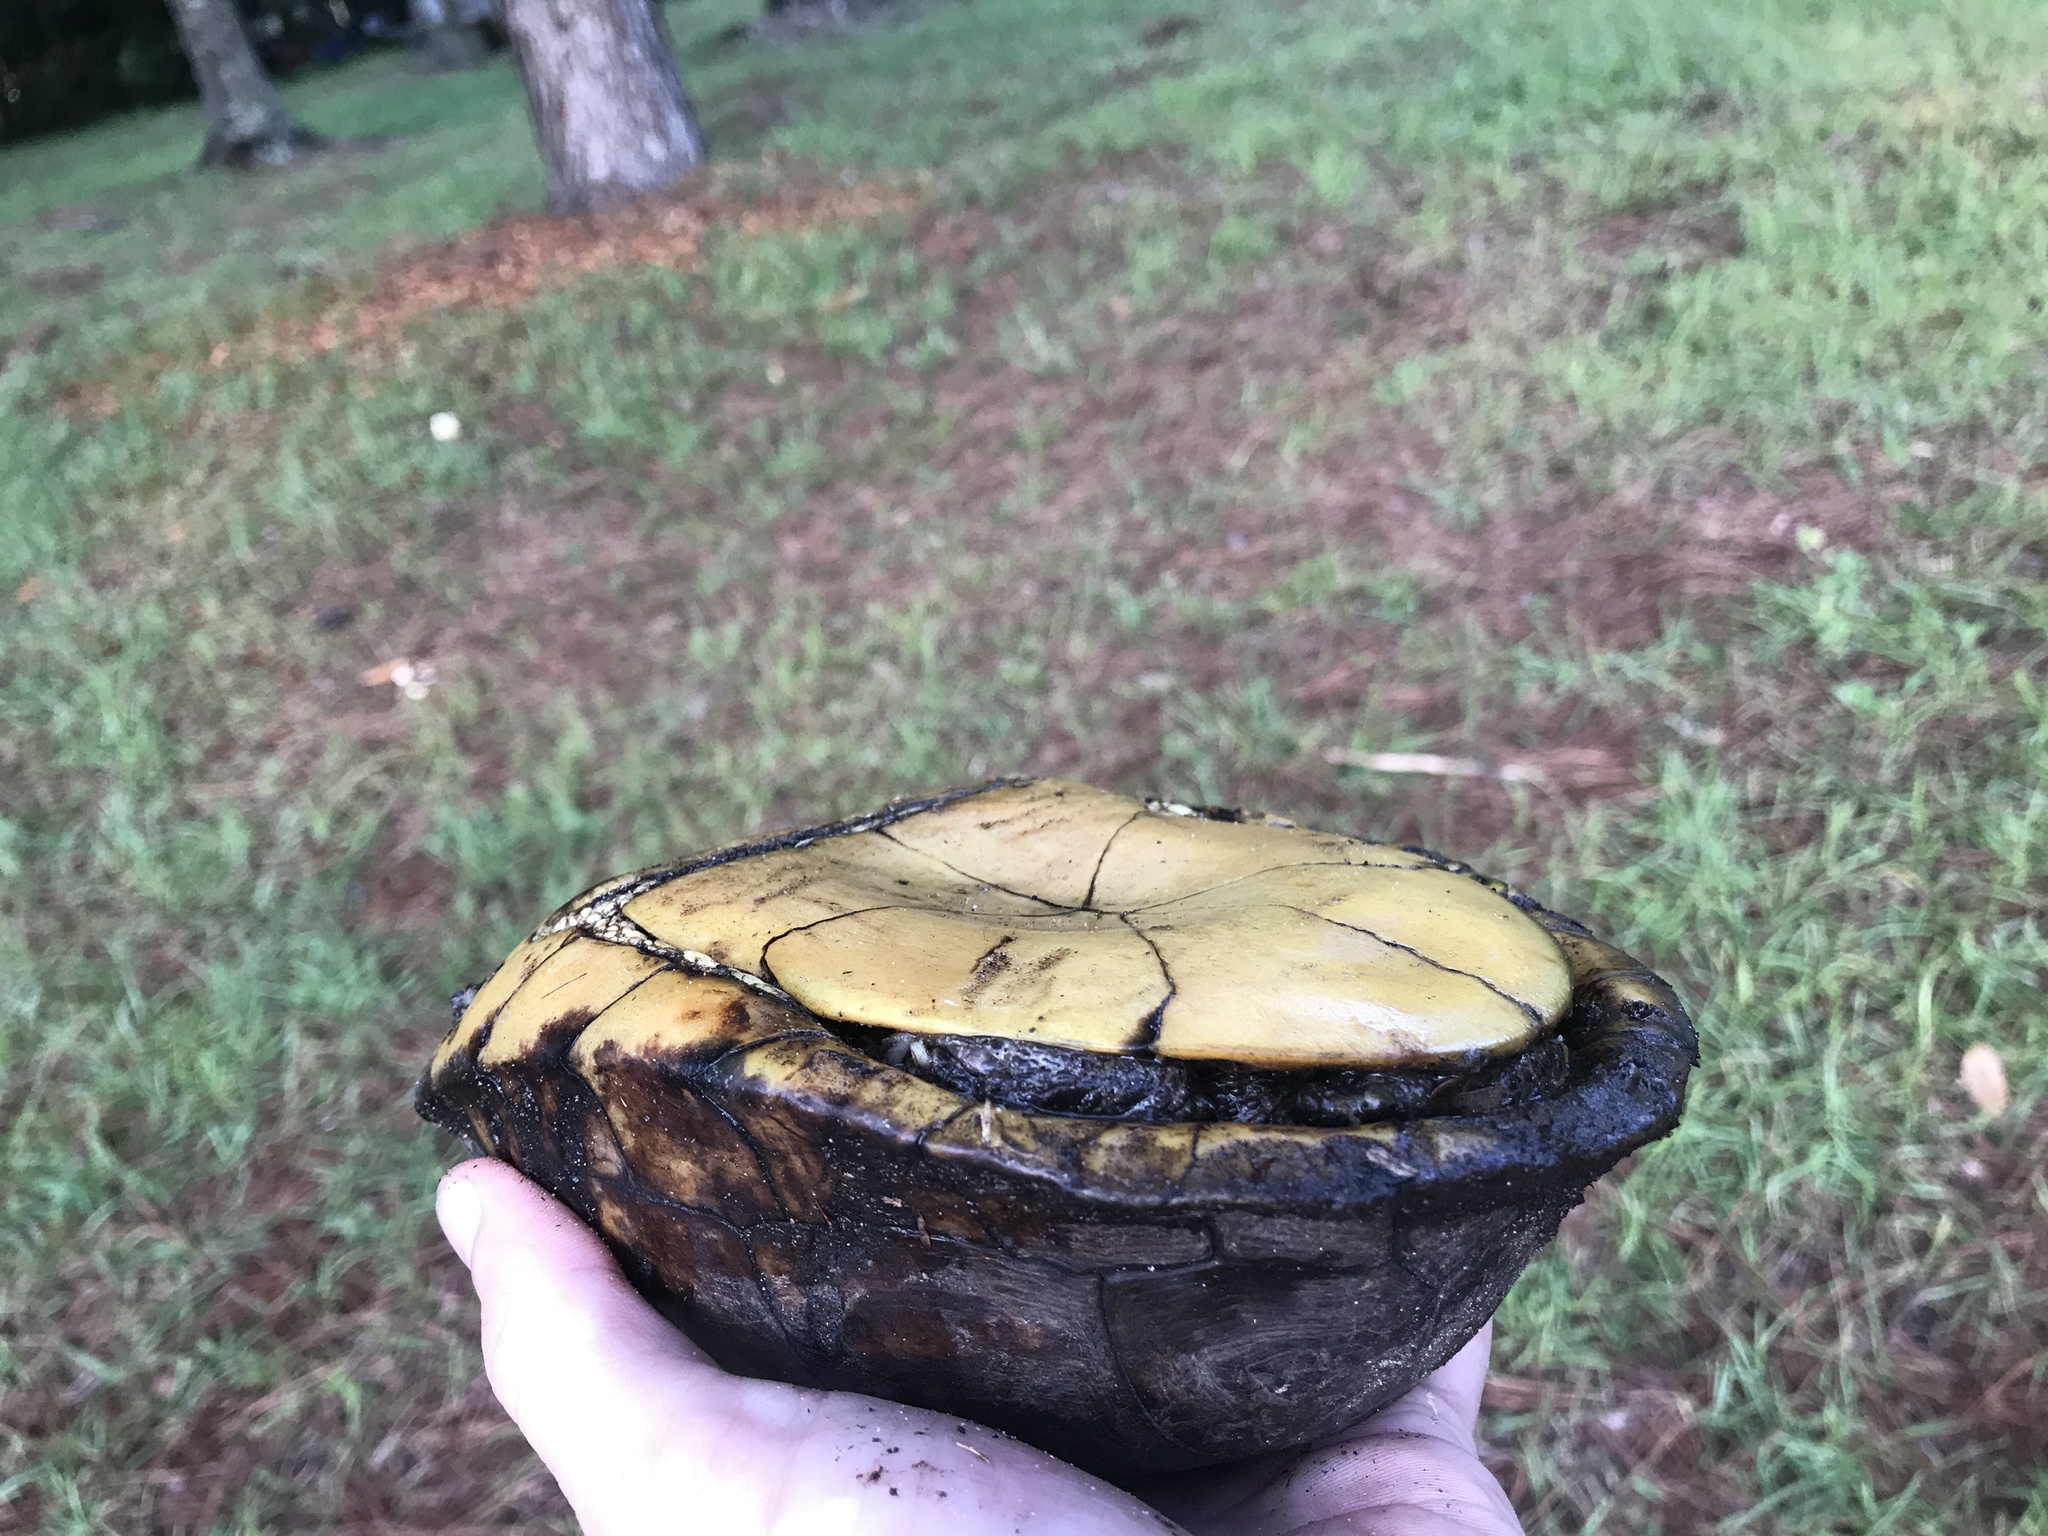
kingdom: Animalia
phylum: Chordata
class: Testudines
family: Emydidae
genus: Terrapene
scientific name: Terrapene carolina
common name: Common box turtle
